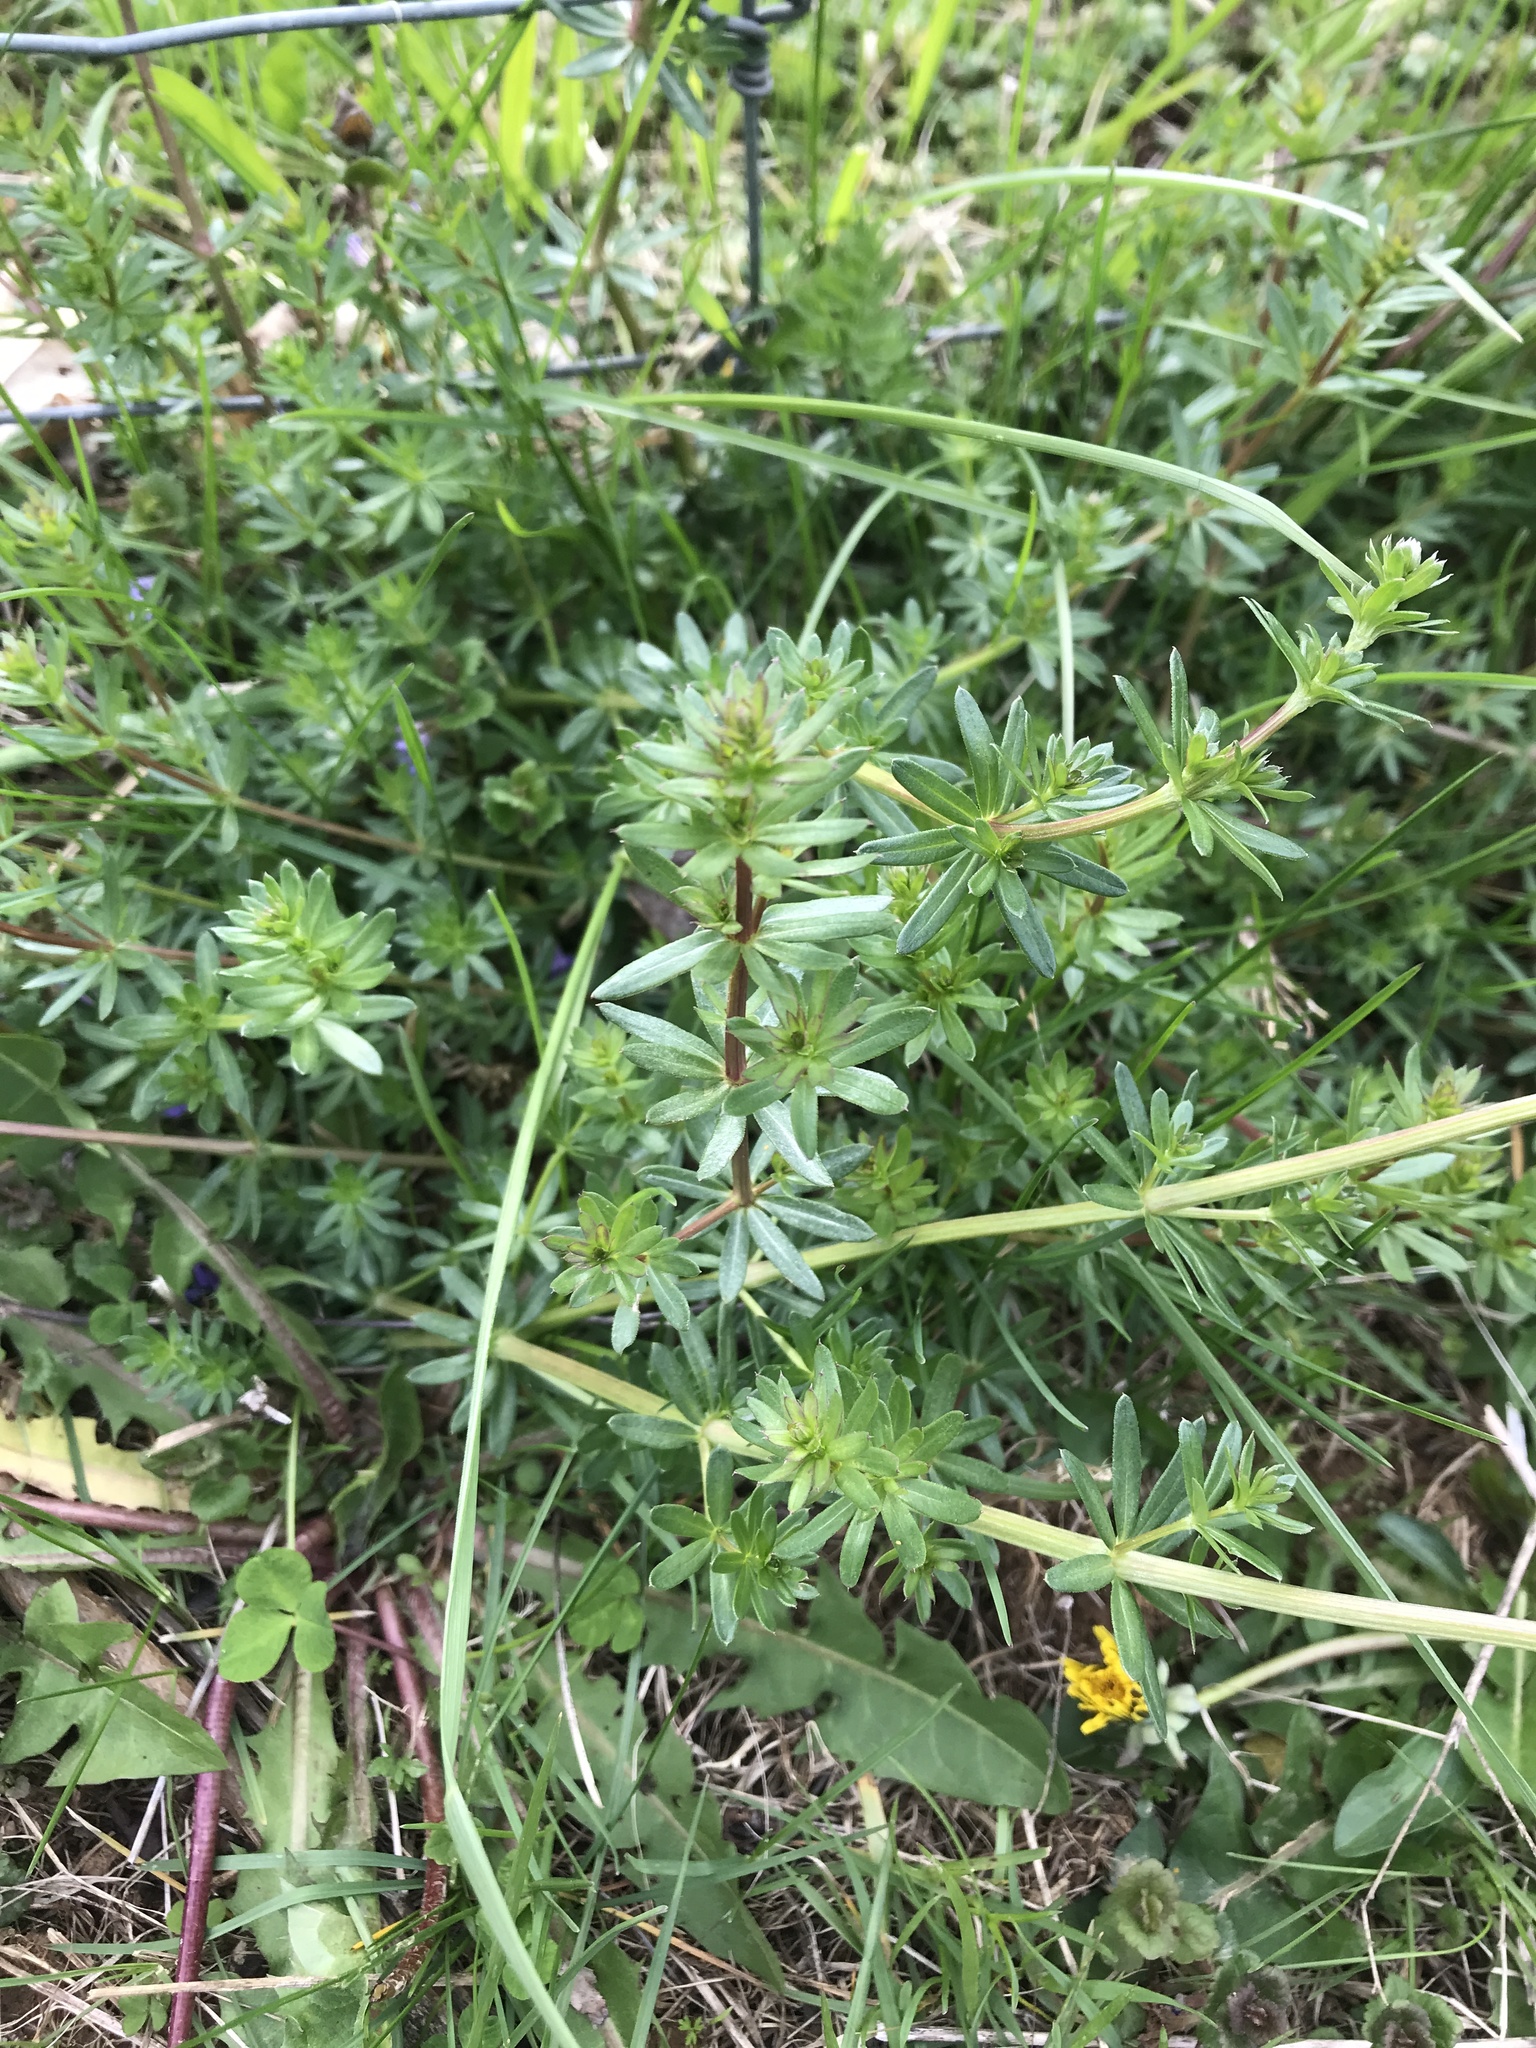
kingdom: Plantae
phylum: Tracheophyta
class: Magnoliopsida
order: Gentianales
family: Rubiaceae
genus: Galium
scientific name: Galium mollugo
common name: Hedge bedstraw
